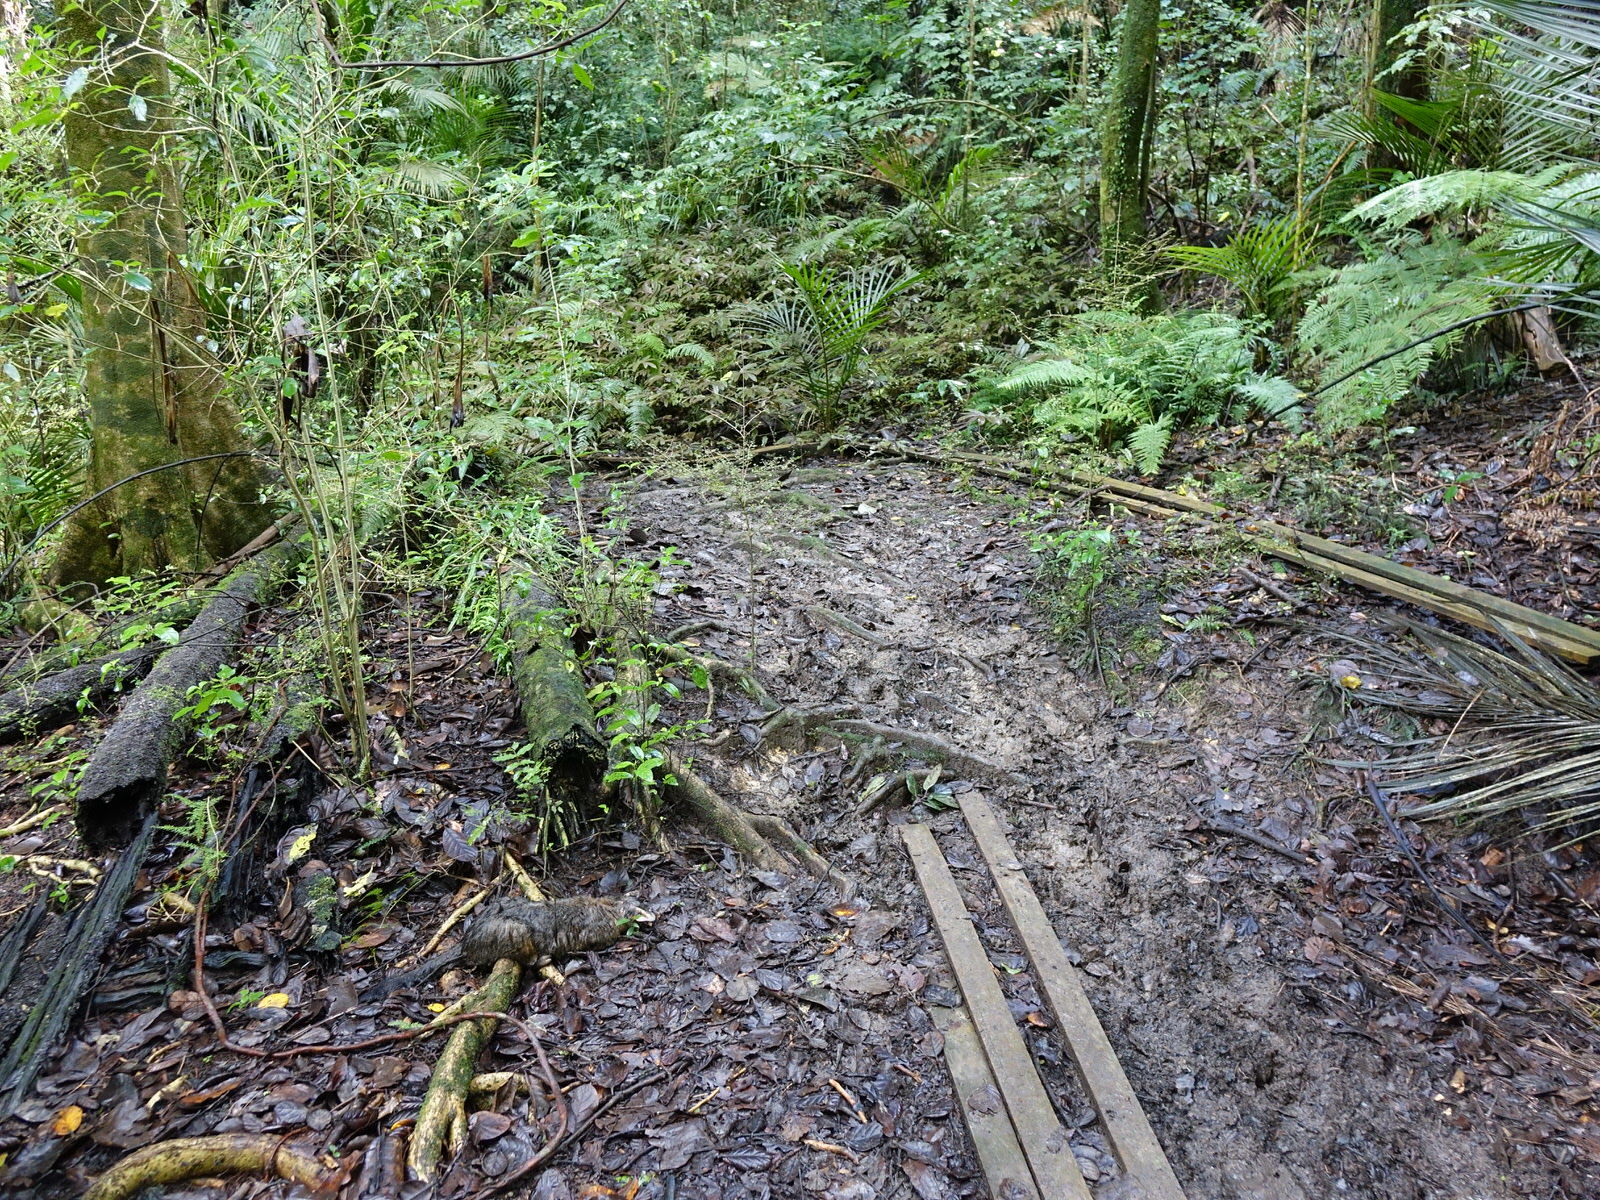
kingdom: Animalia
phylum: Chordata
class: Mammalia
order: Diprotodontia
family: Phalangeridae
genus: Trichosurus
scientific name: Trichosurus vulpecula
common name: Common brushtail
